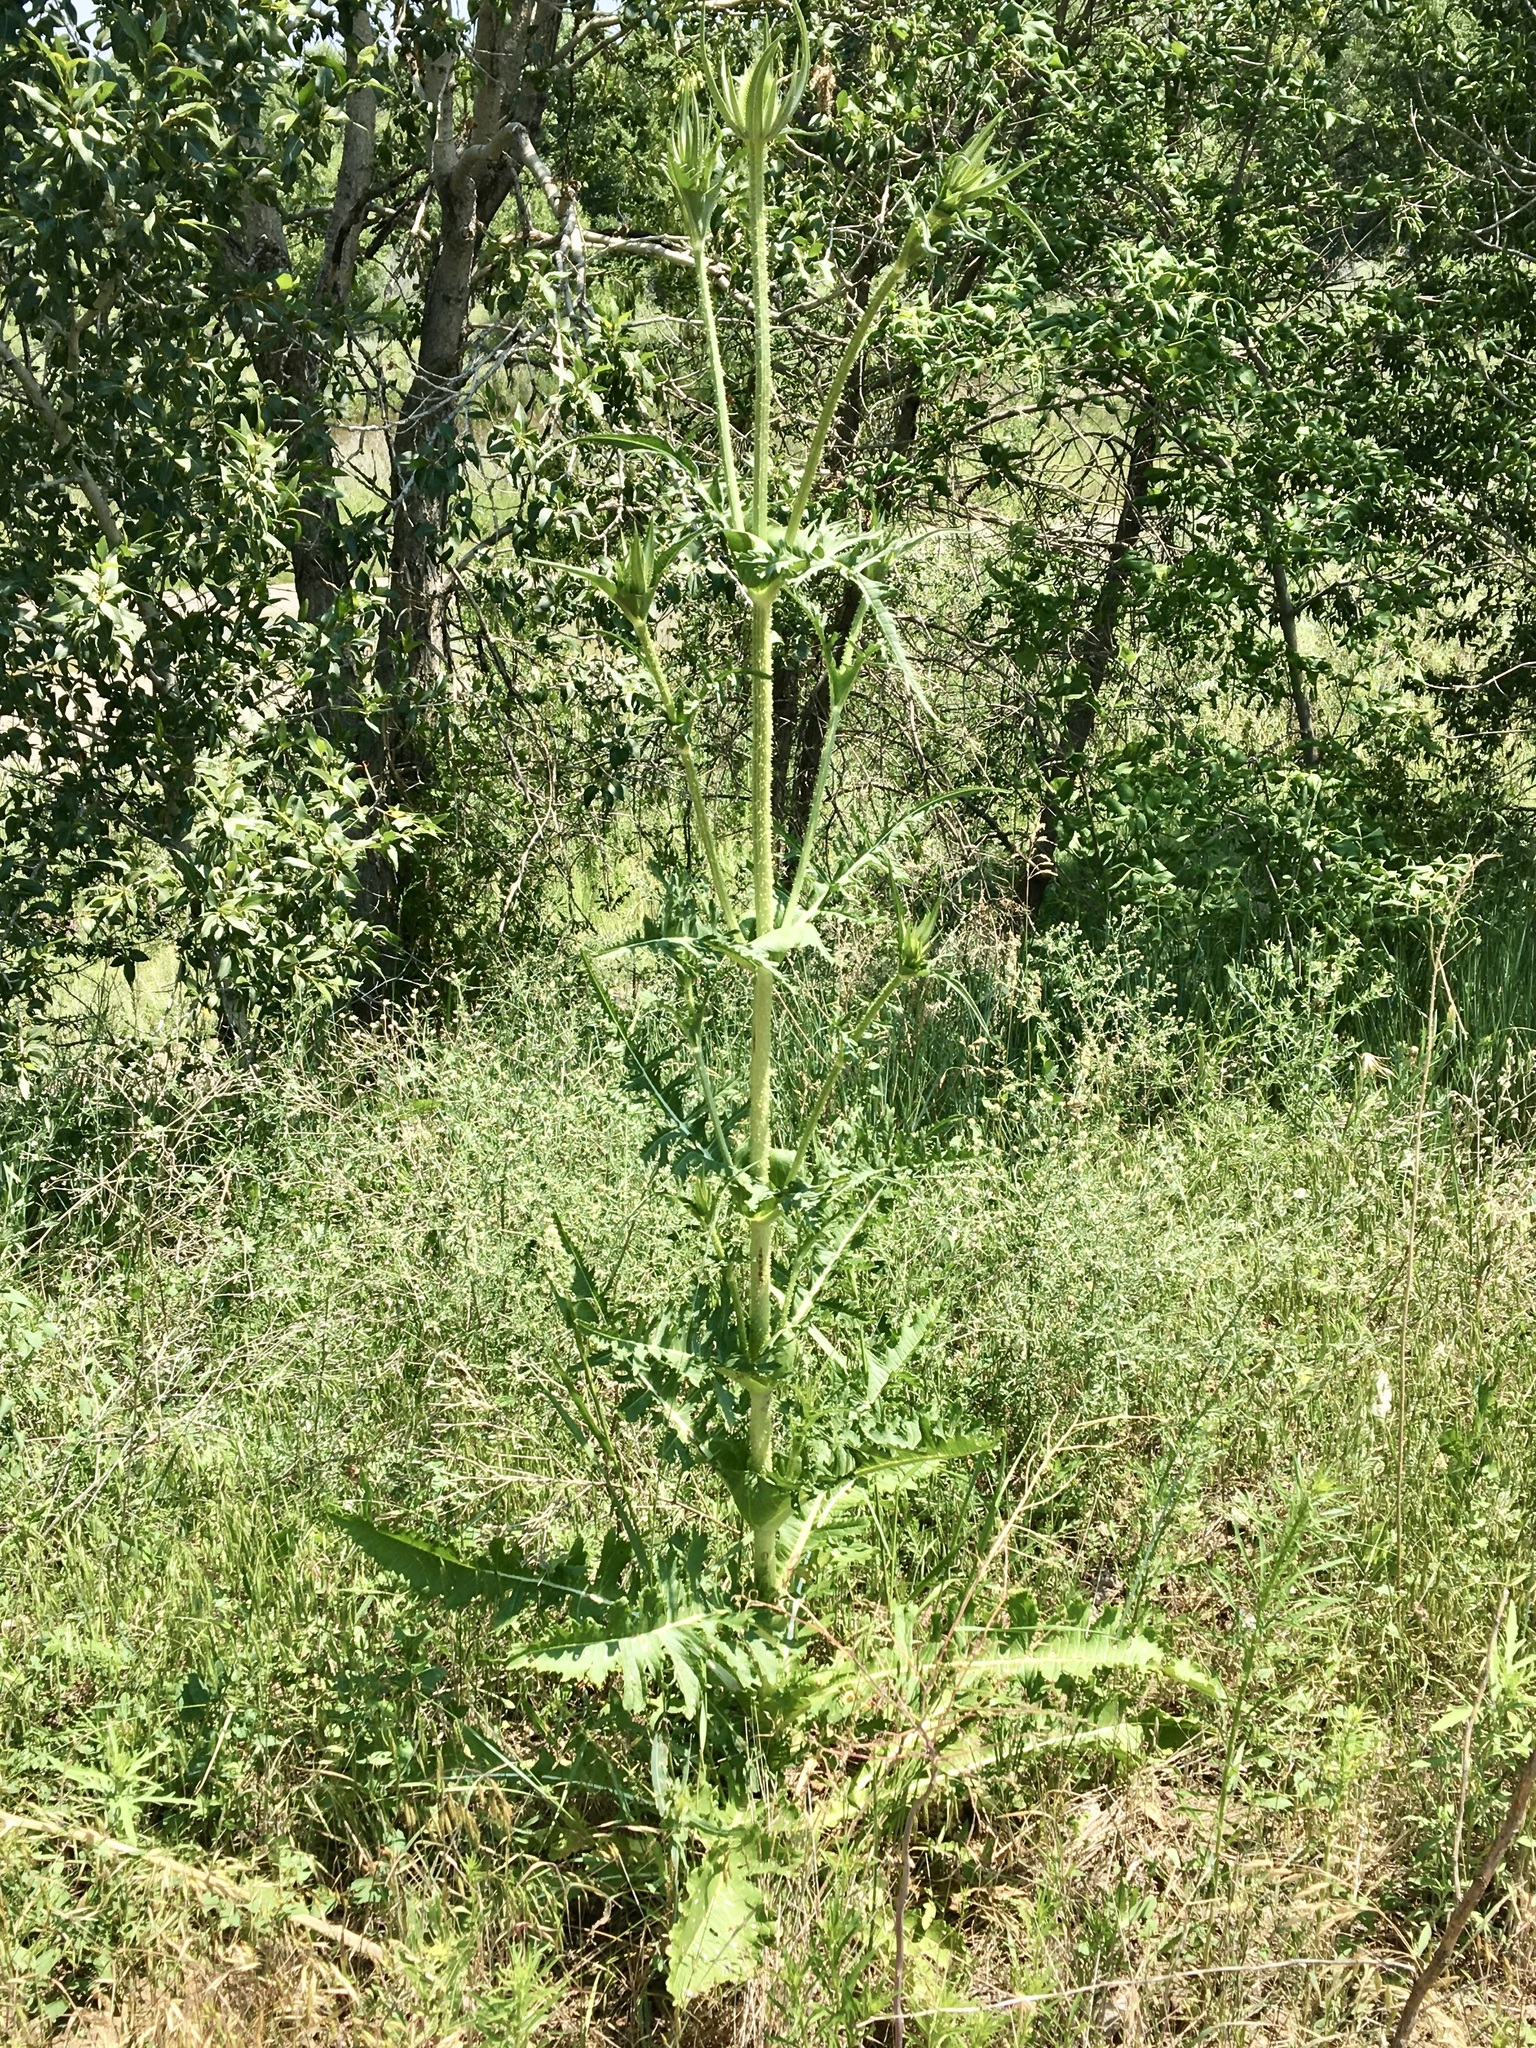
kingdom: Plantae
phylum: Tracheophyta
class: Magnoliopsida
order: Dipsacales
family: Caprifoliaceae
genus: Dipsacus
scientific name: Dipsacus laciniatus
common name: Cut-leaved teasel
